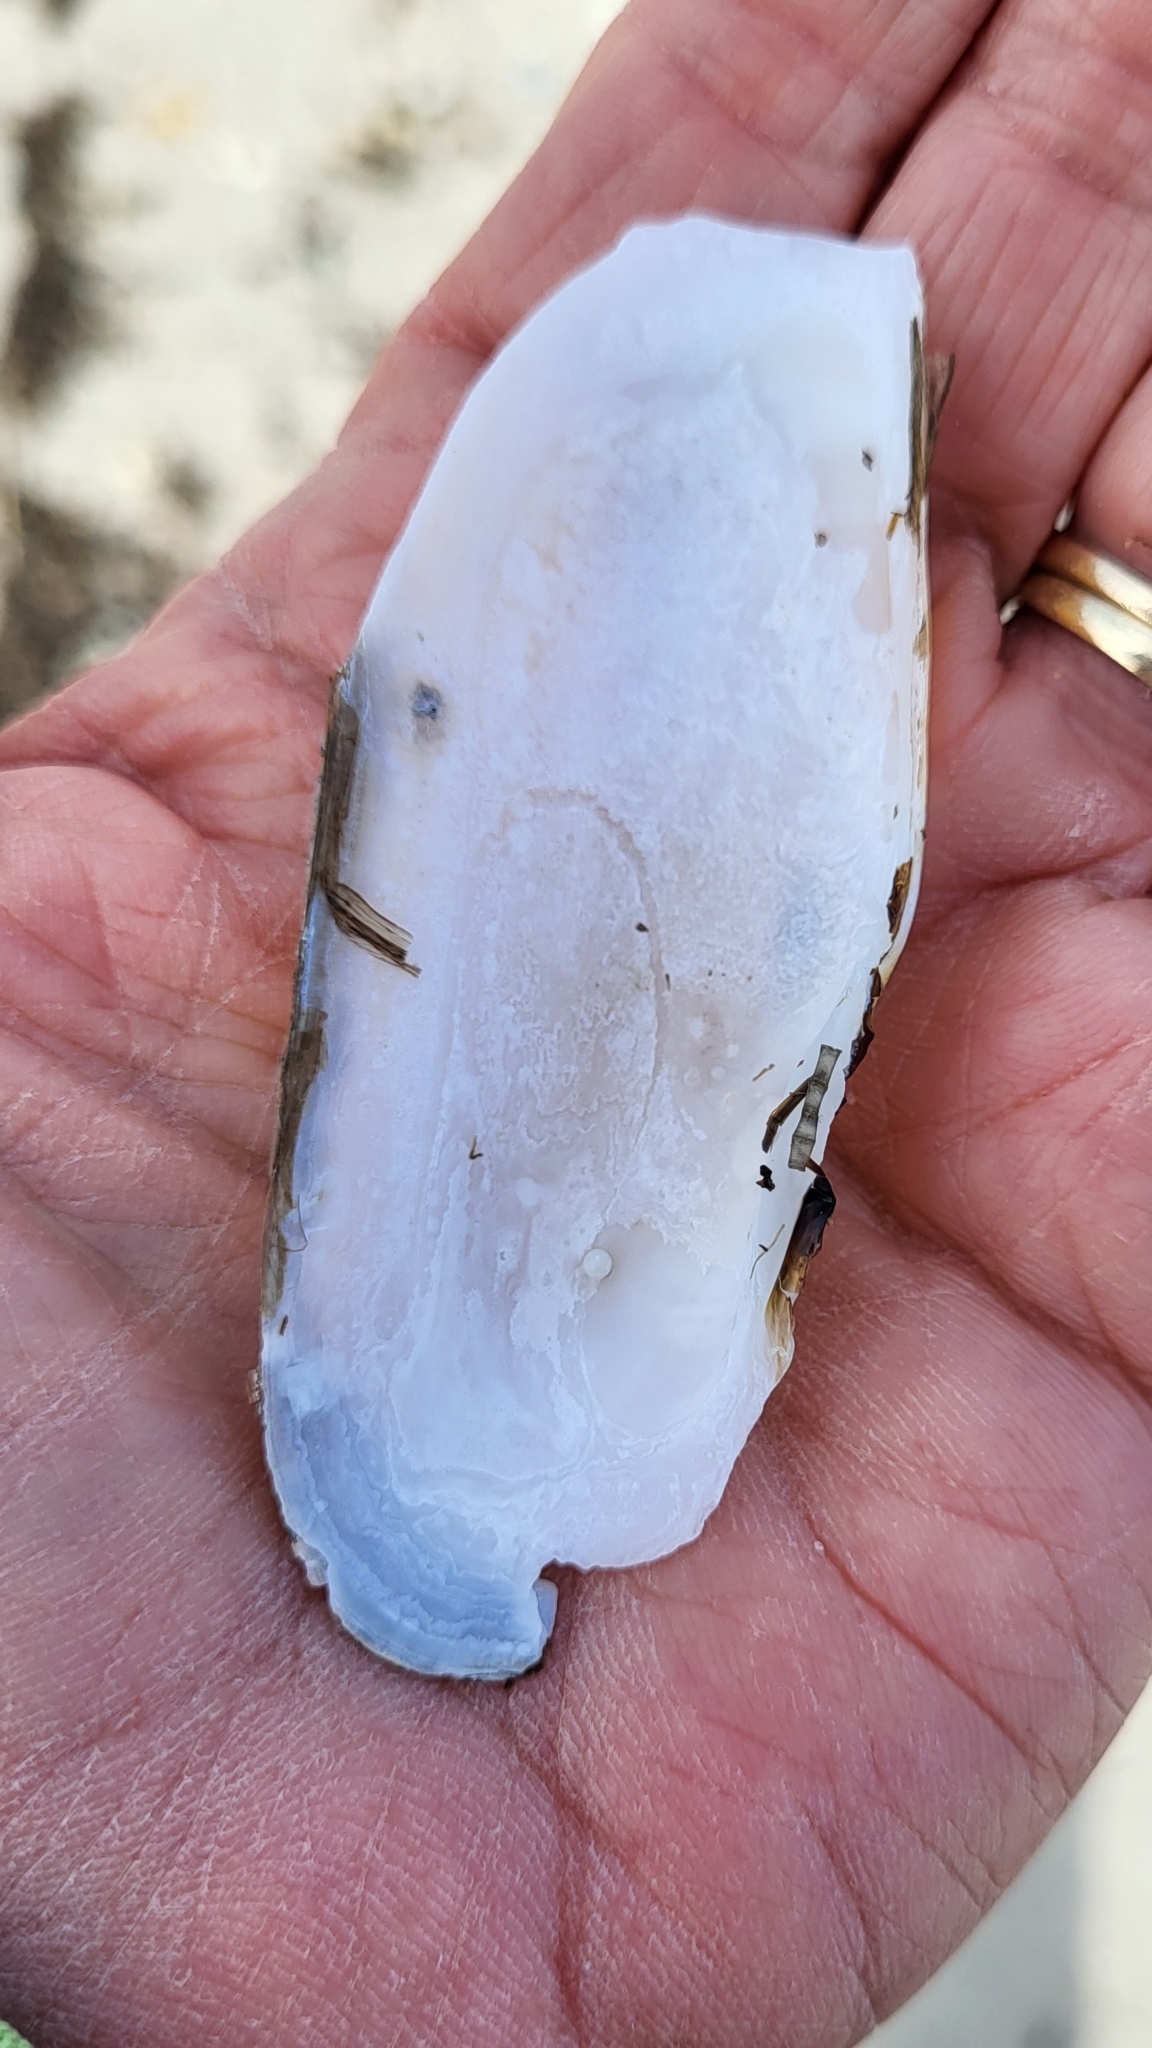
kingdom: Animalia
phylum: Mollusca
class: Bivalvia
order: Cardiida
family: Solecurtidae
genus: Tagelus
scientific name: Tagelus plebeius
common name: Stout tagelus
